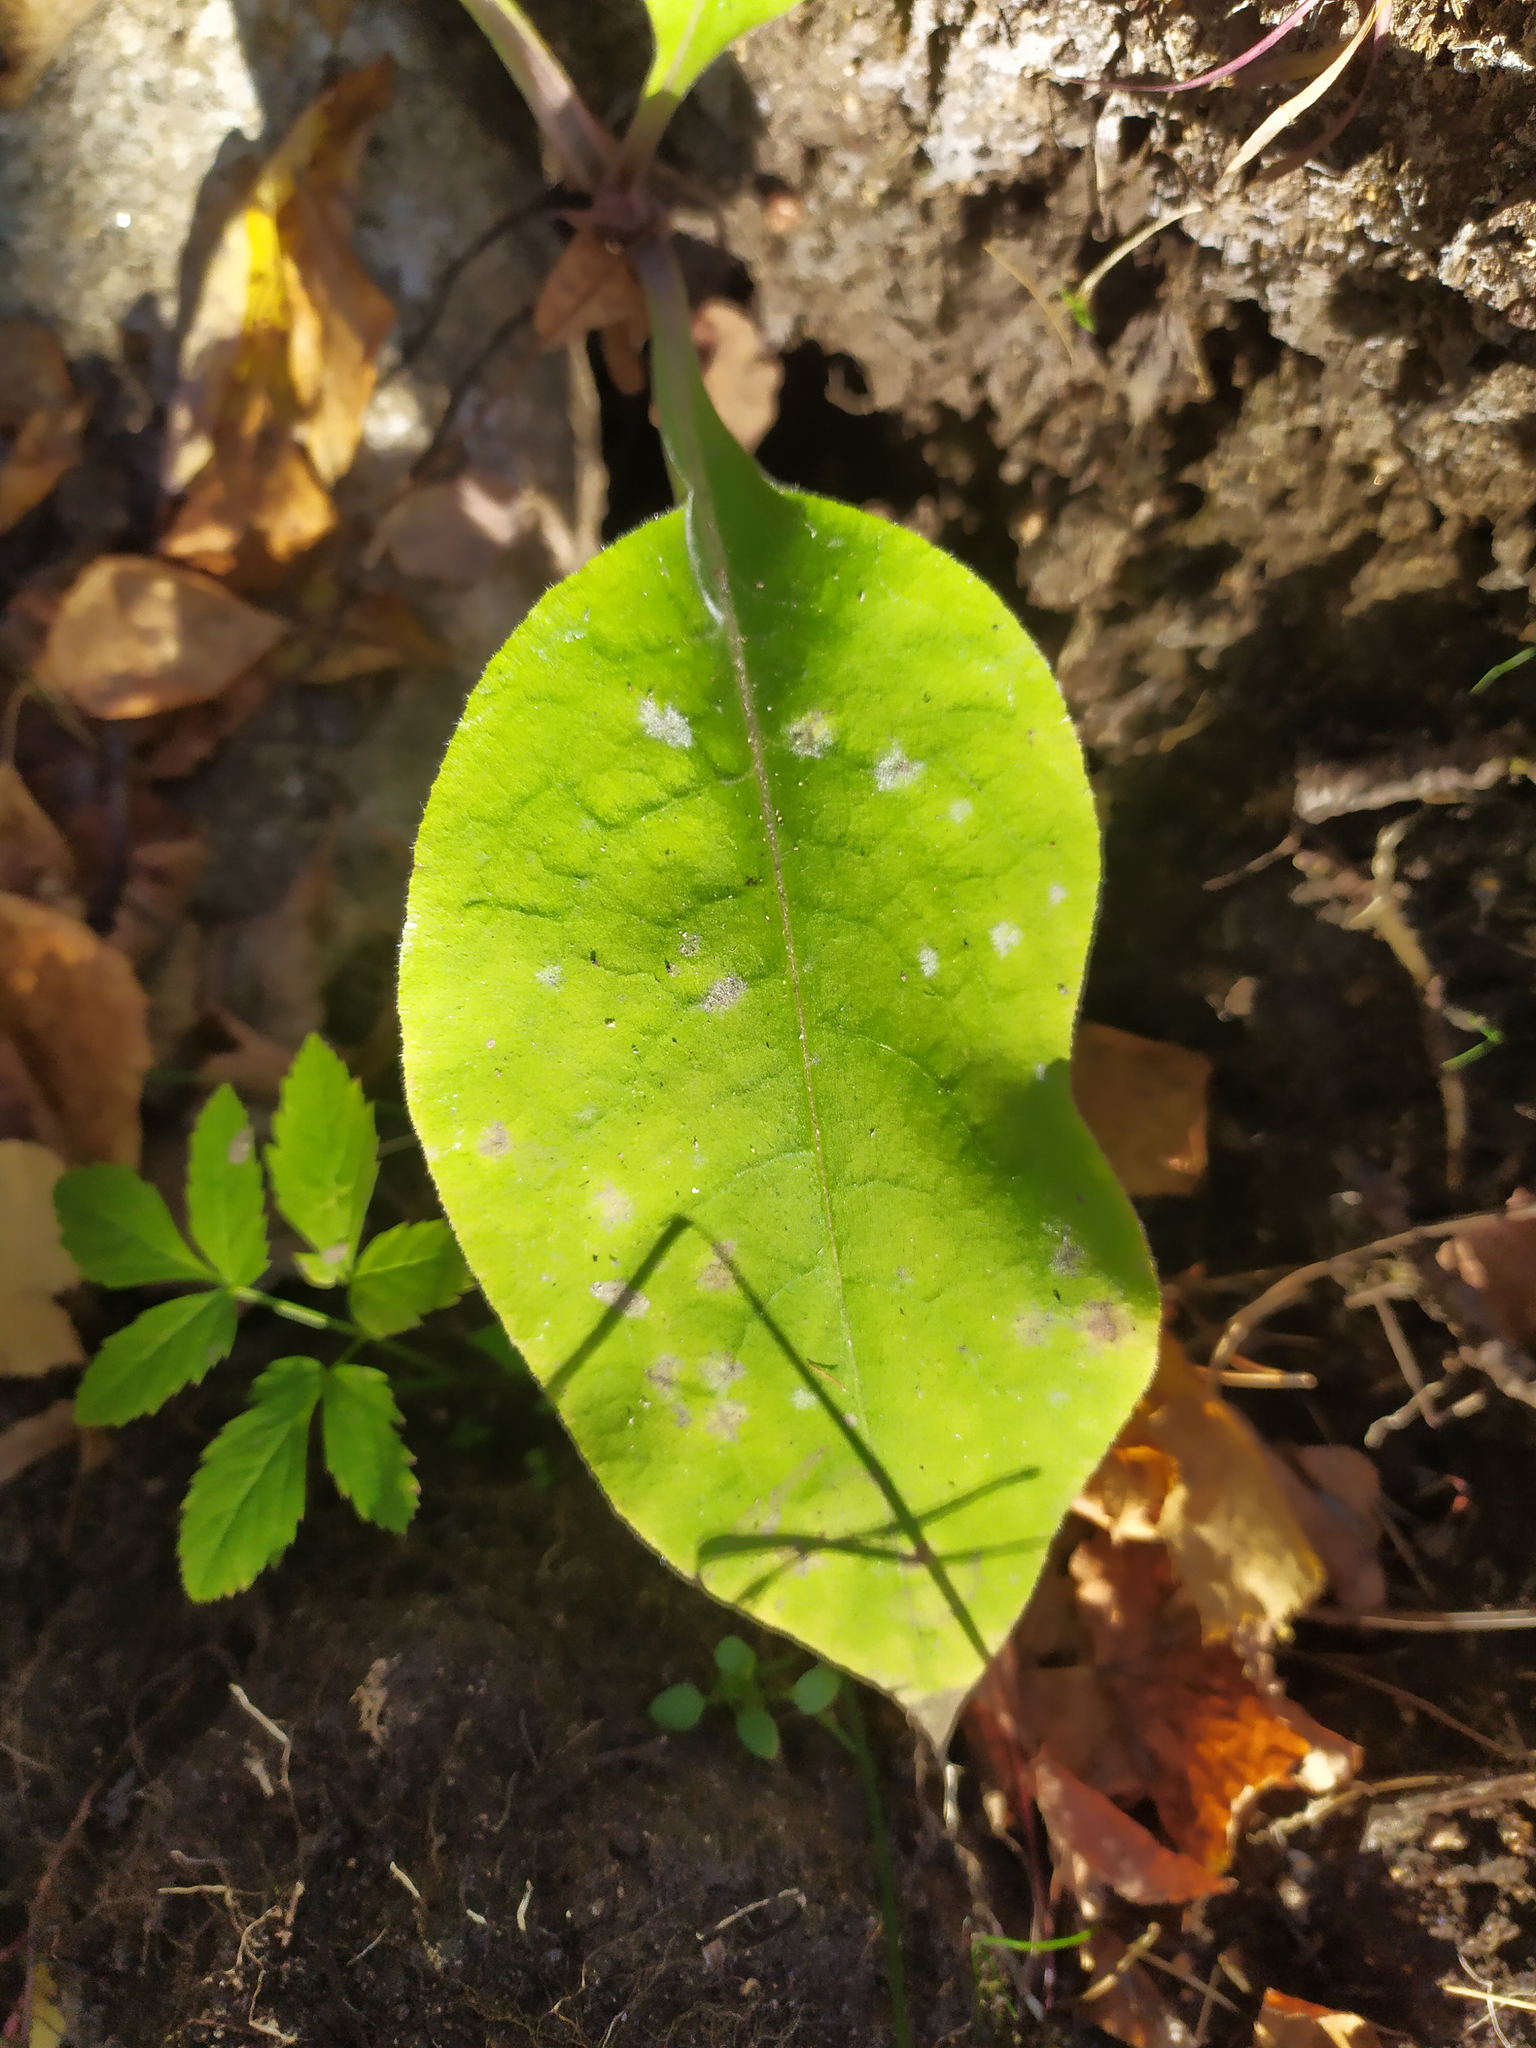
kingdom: Plantae
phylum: Tracheophyta
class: Magnoliopsida
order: Boraginales
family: Boraginaceae
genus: Pulmonaria
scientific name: Pulmonaria mollis
